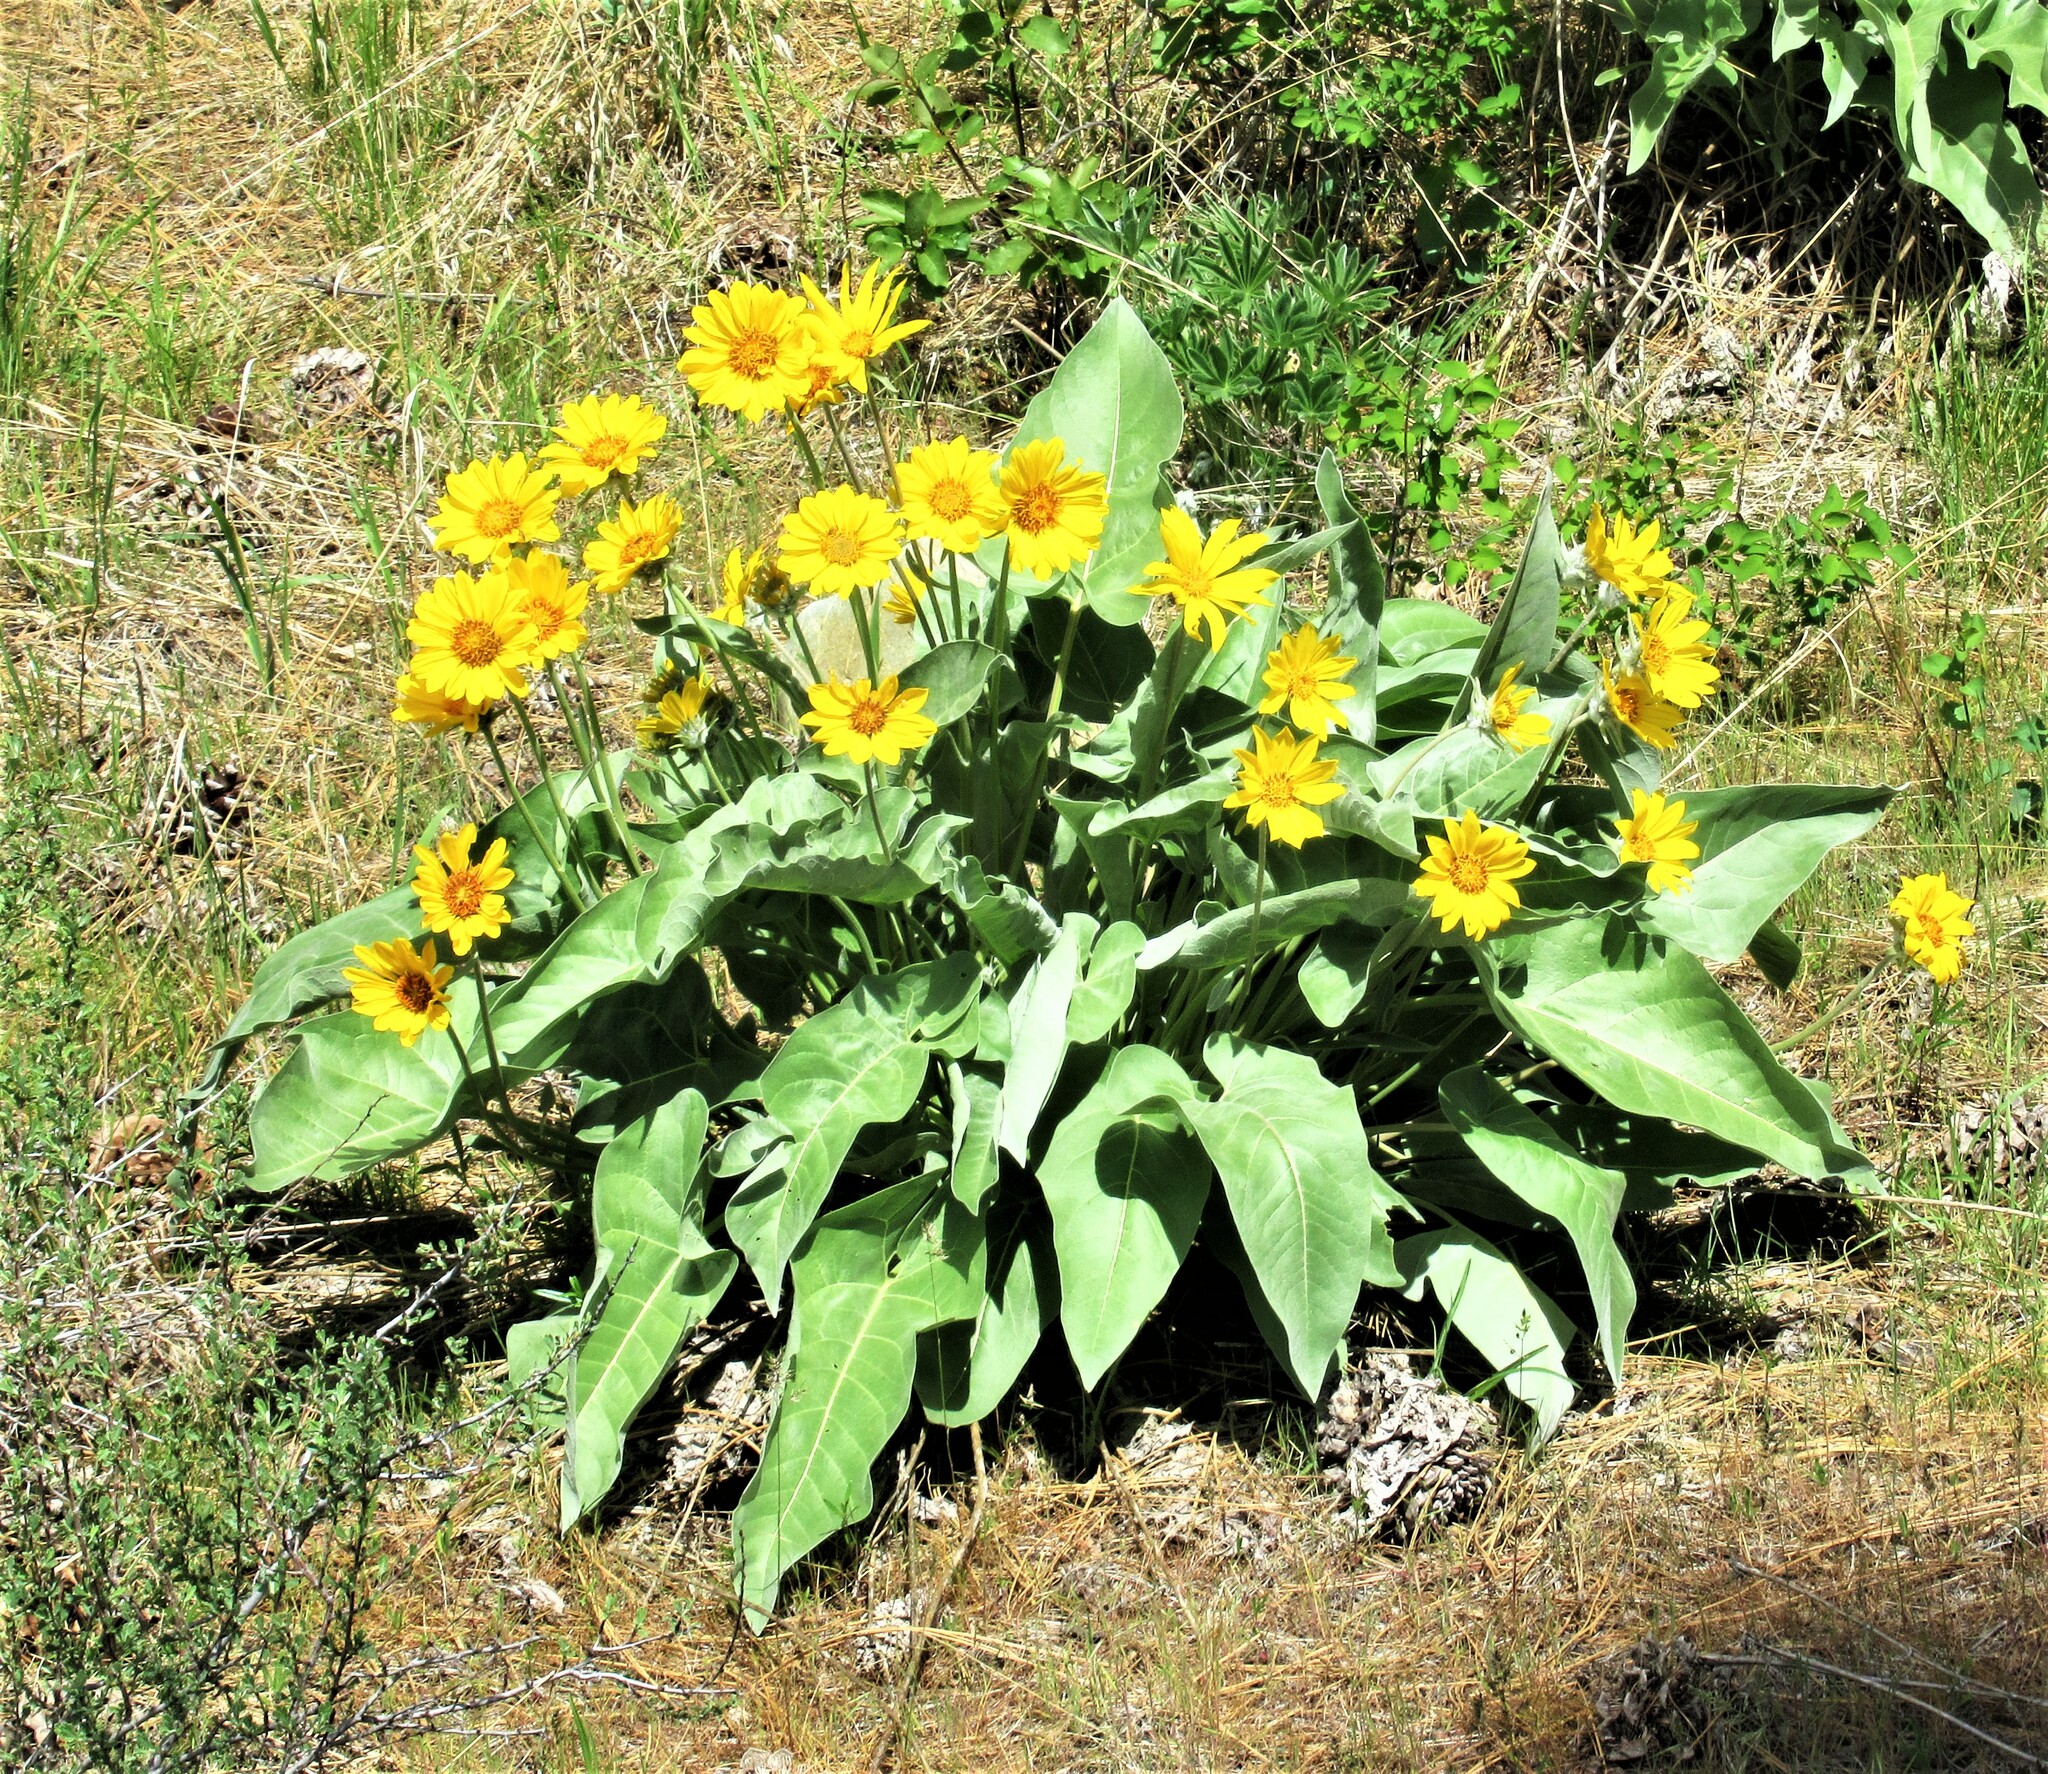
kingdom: Plantae
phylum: Tracheophyta
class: Magnoliopsida
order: Asterales
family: Asteraceae
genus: Wyethia
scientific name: Wyethia sagittata
